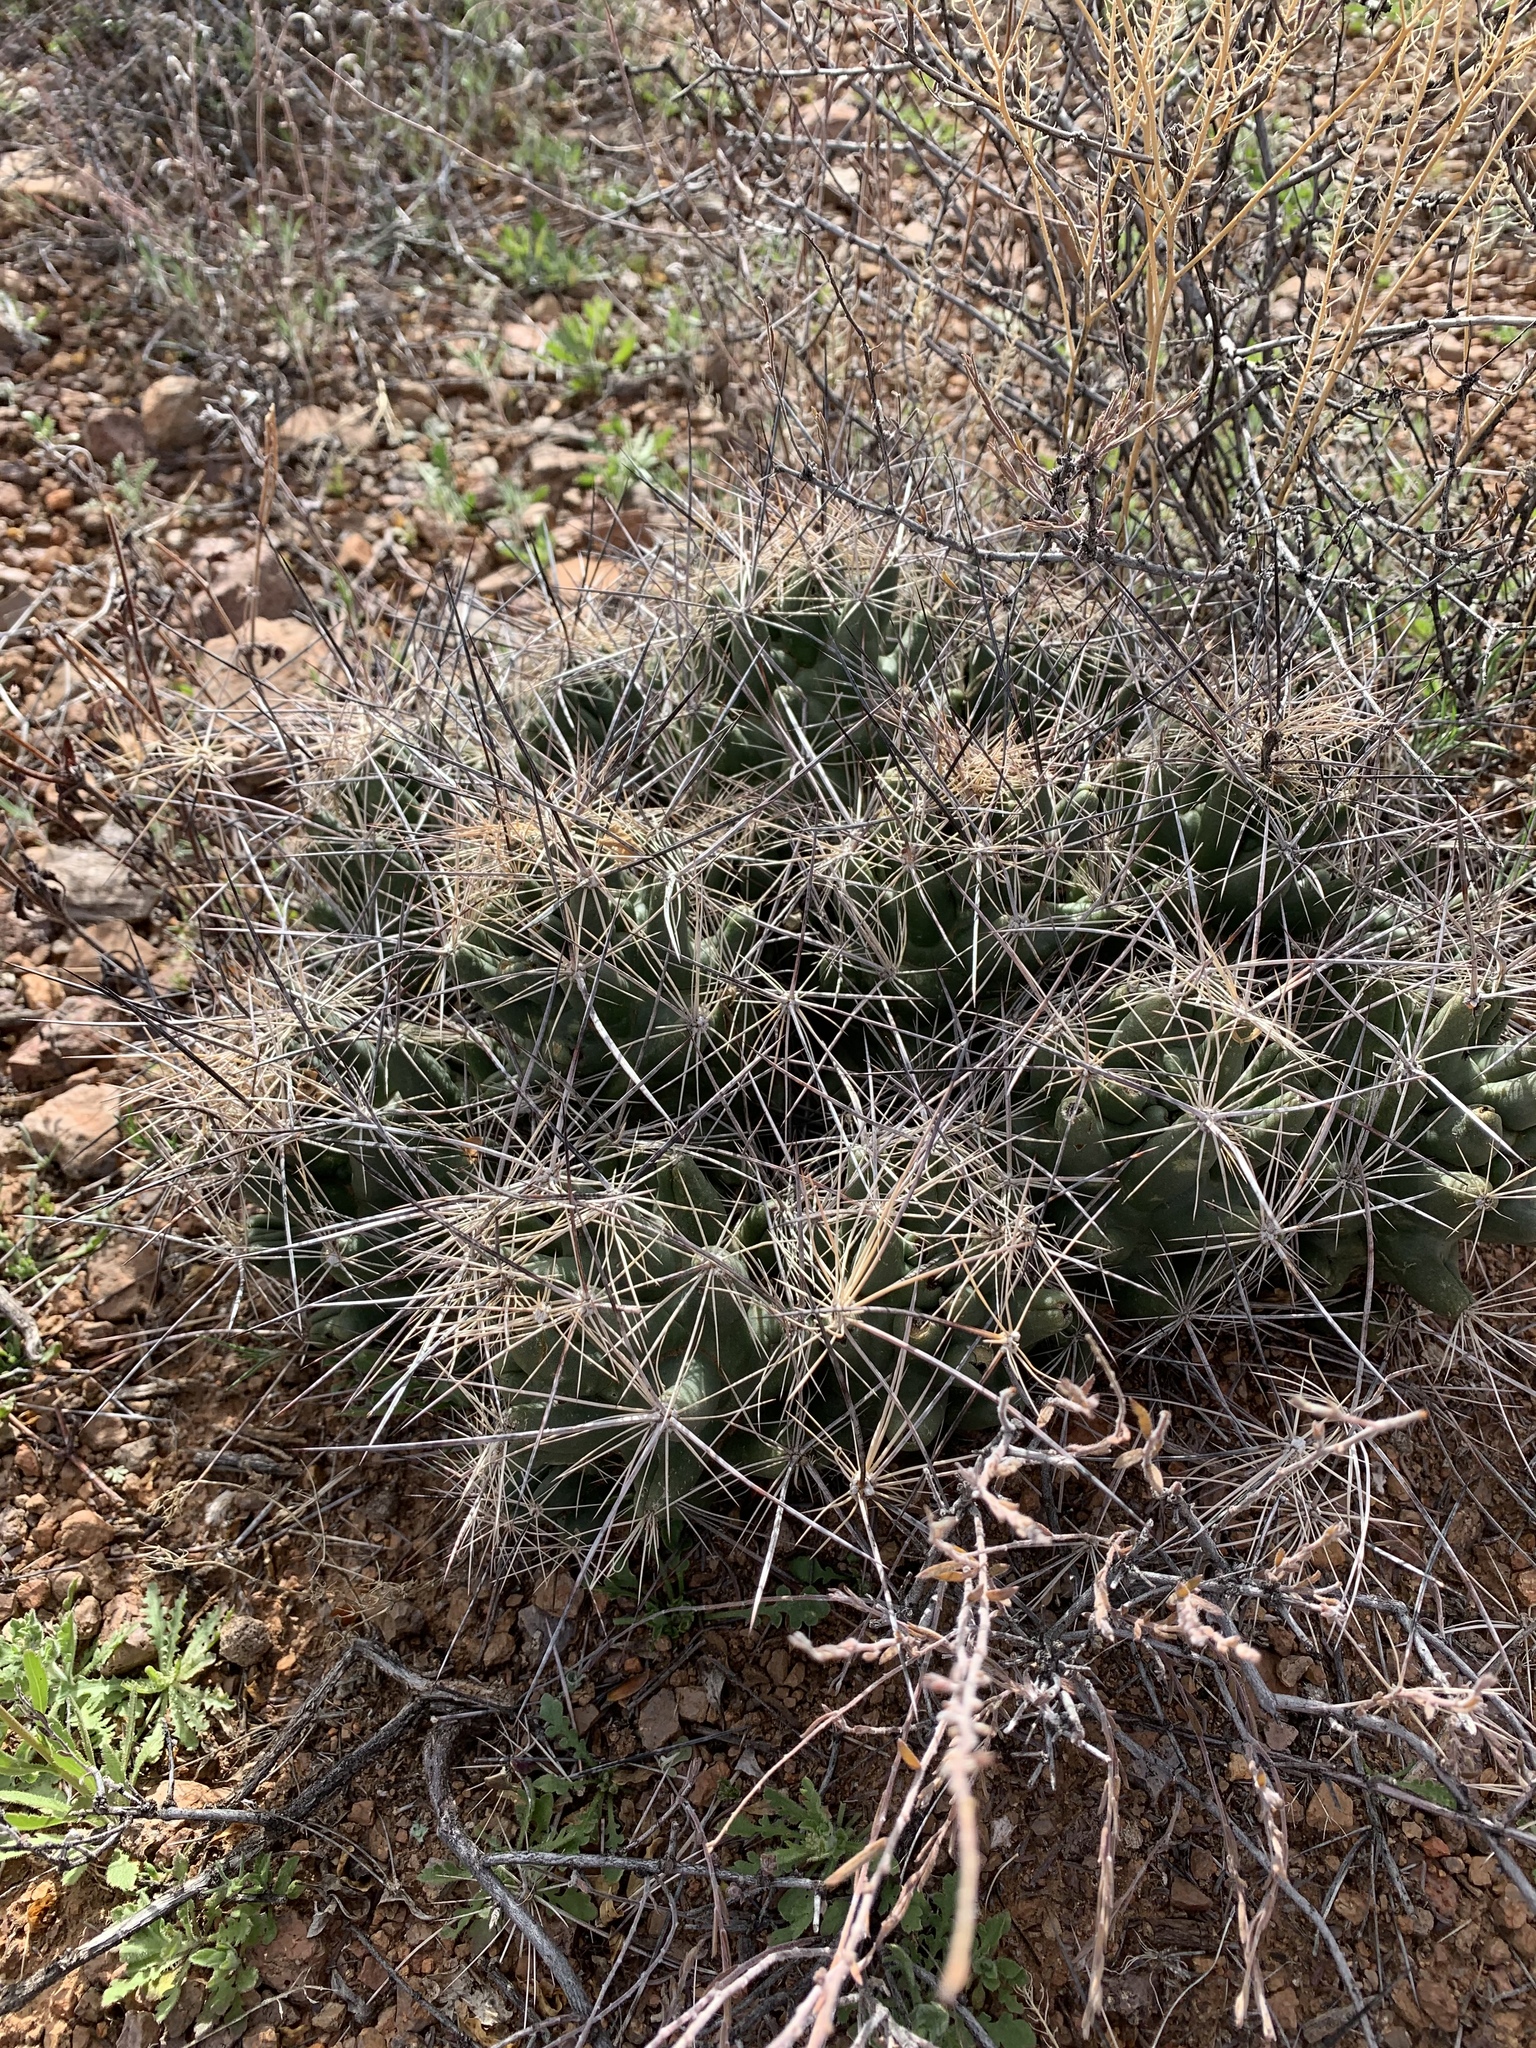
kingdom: Plantae
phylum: Tracheophyta
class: Magnoliopsida
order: Caryophyllales
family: Cactaceae
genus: Coryphantha
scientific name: Coryphantha macromeris
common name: Nipple beehive cactus
